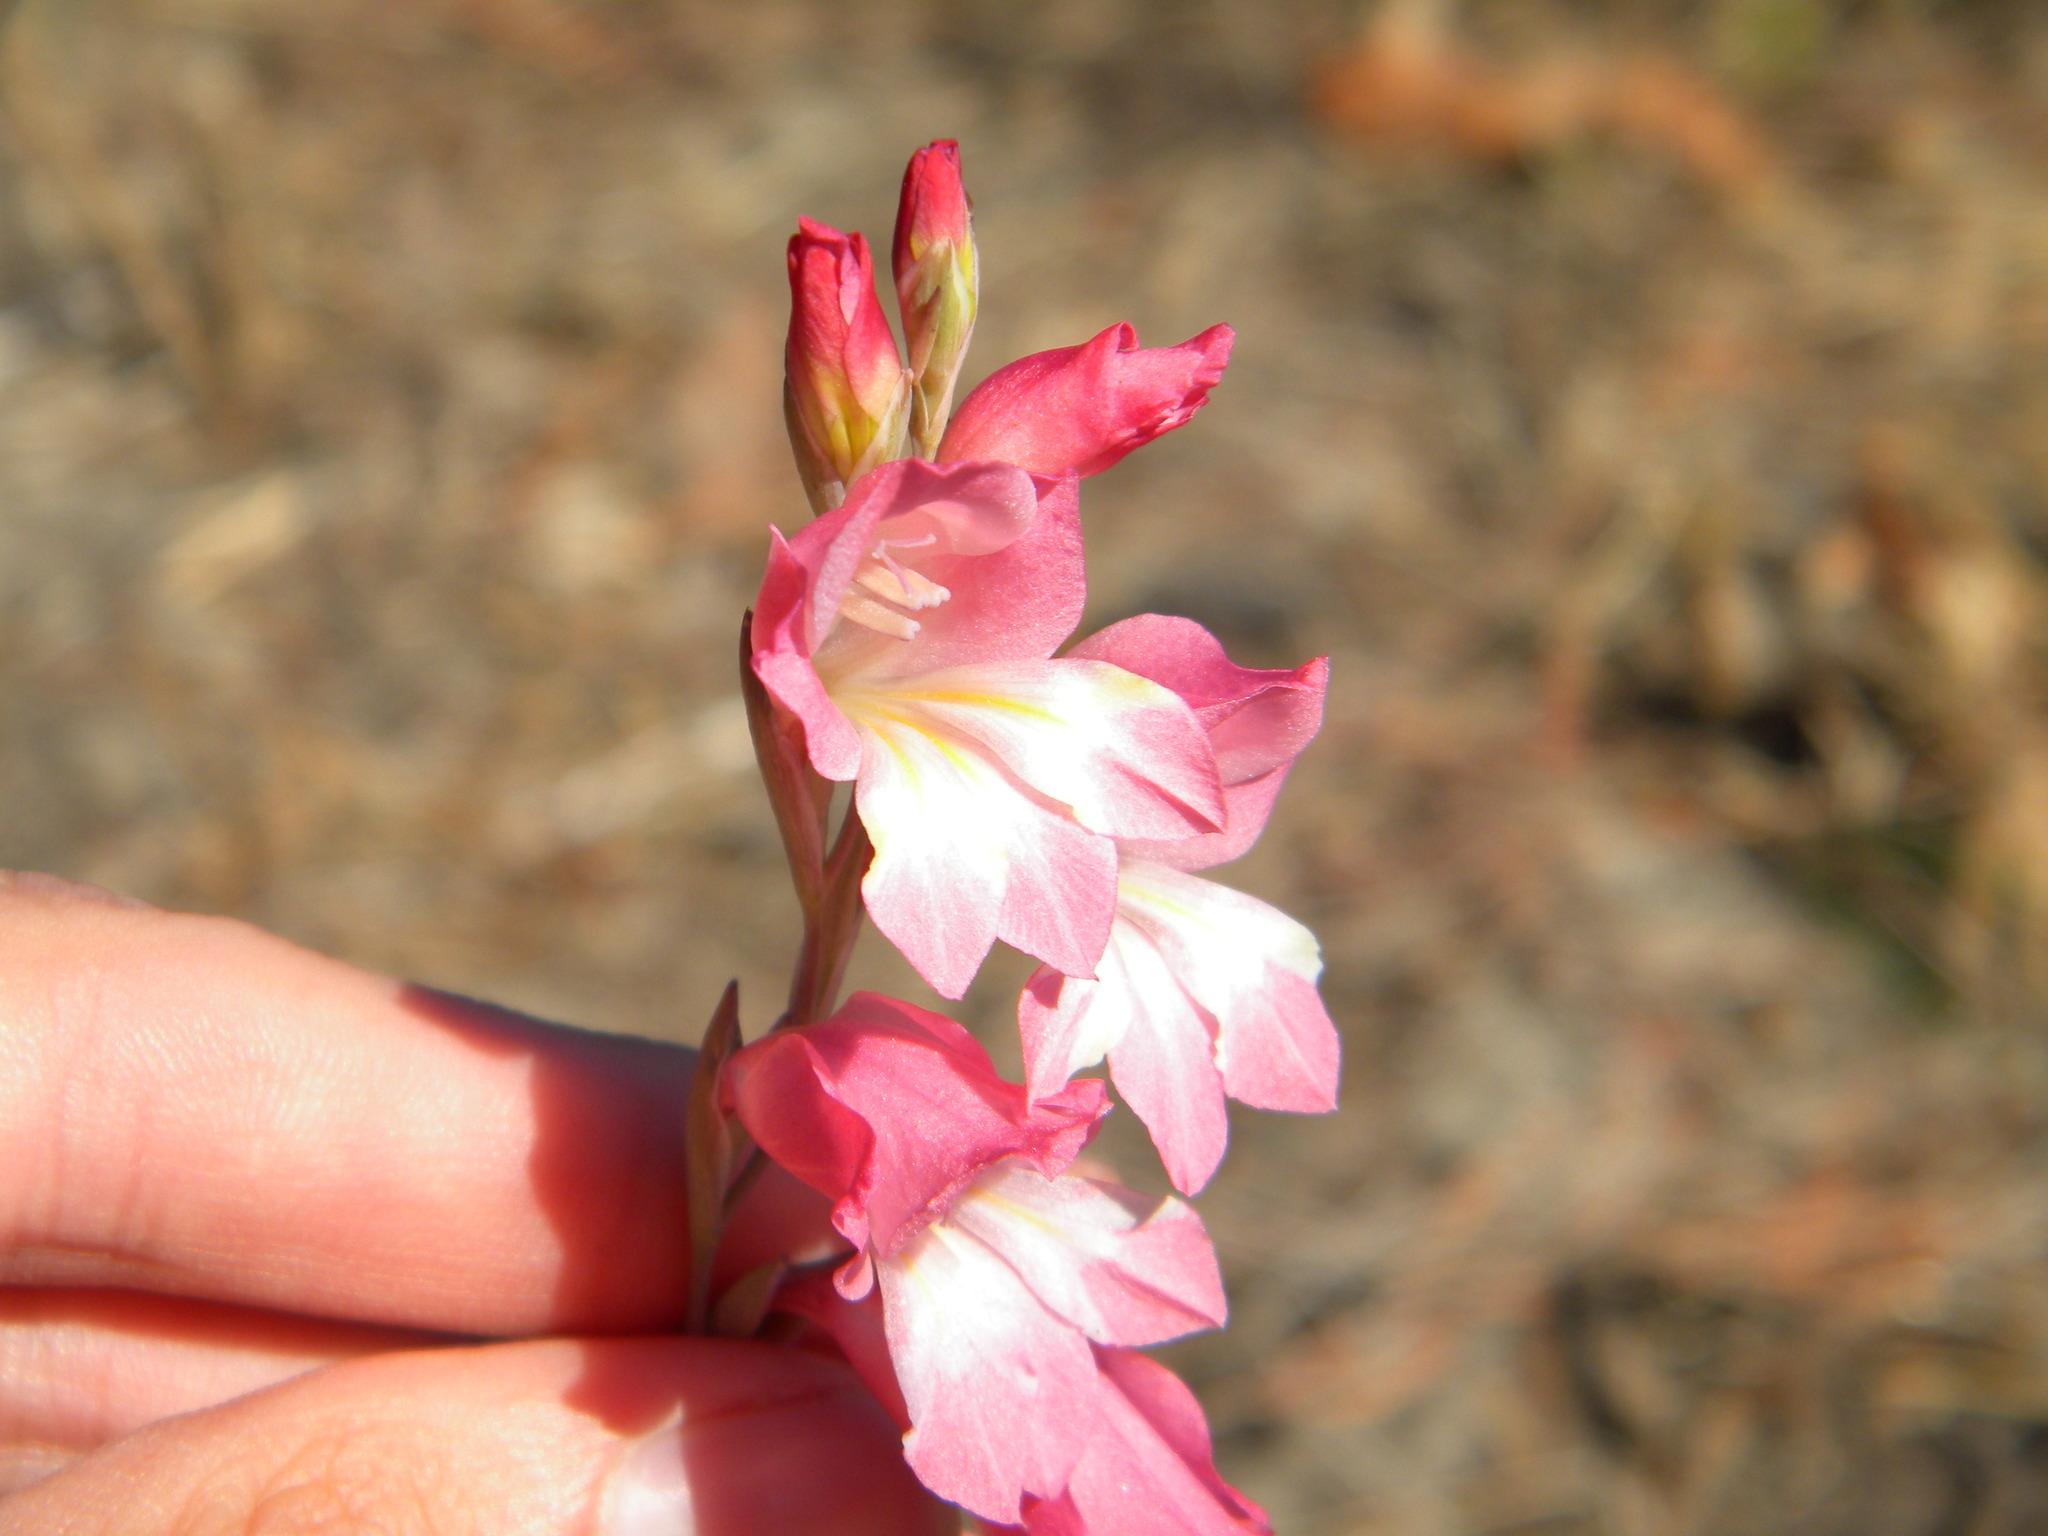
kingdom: Plantae
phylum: Tracheophyta
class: Liliopsida
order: Asparagales
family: Iridaceae
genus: Gladiolus
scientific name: Gladiolus brevifolius
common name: March pypie
